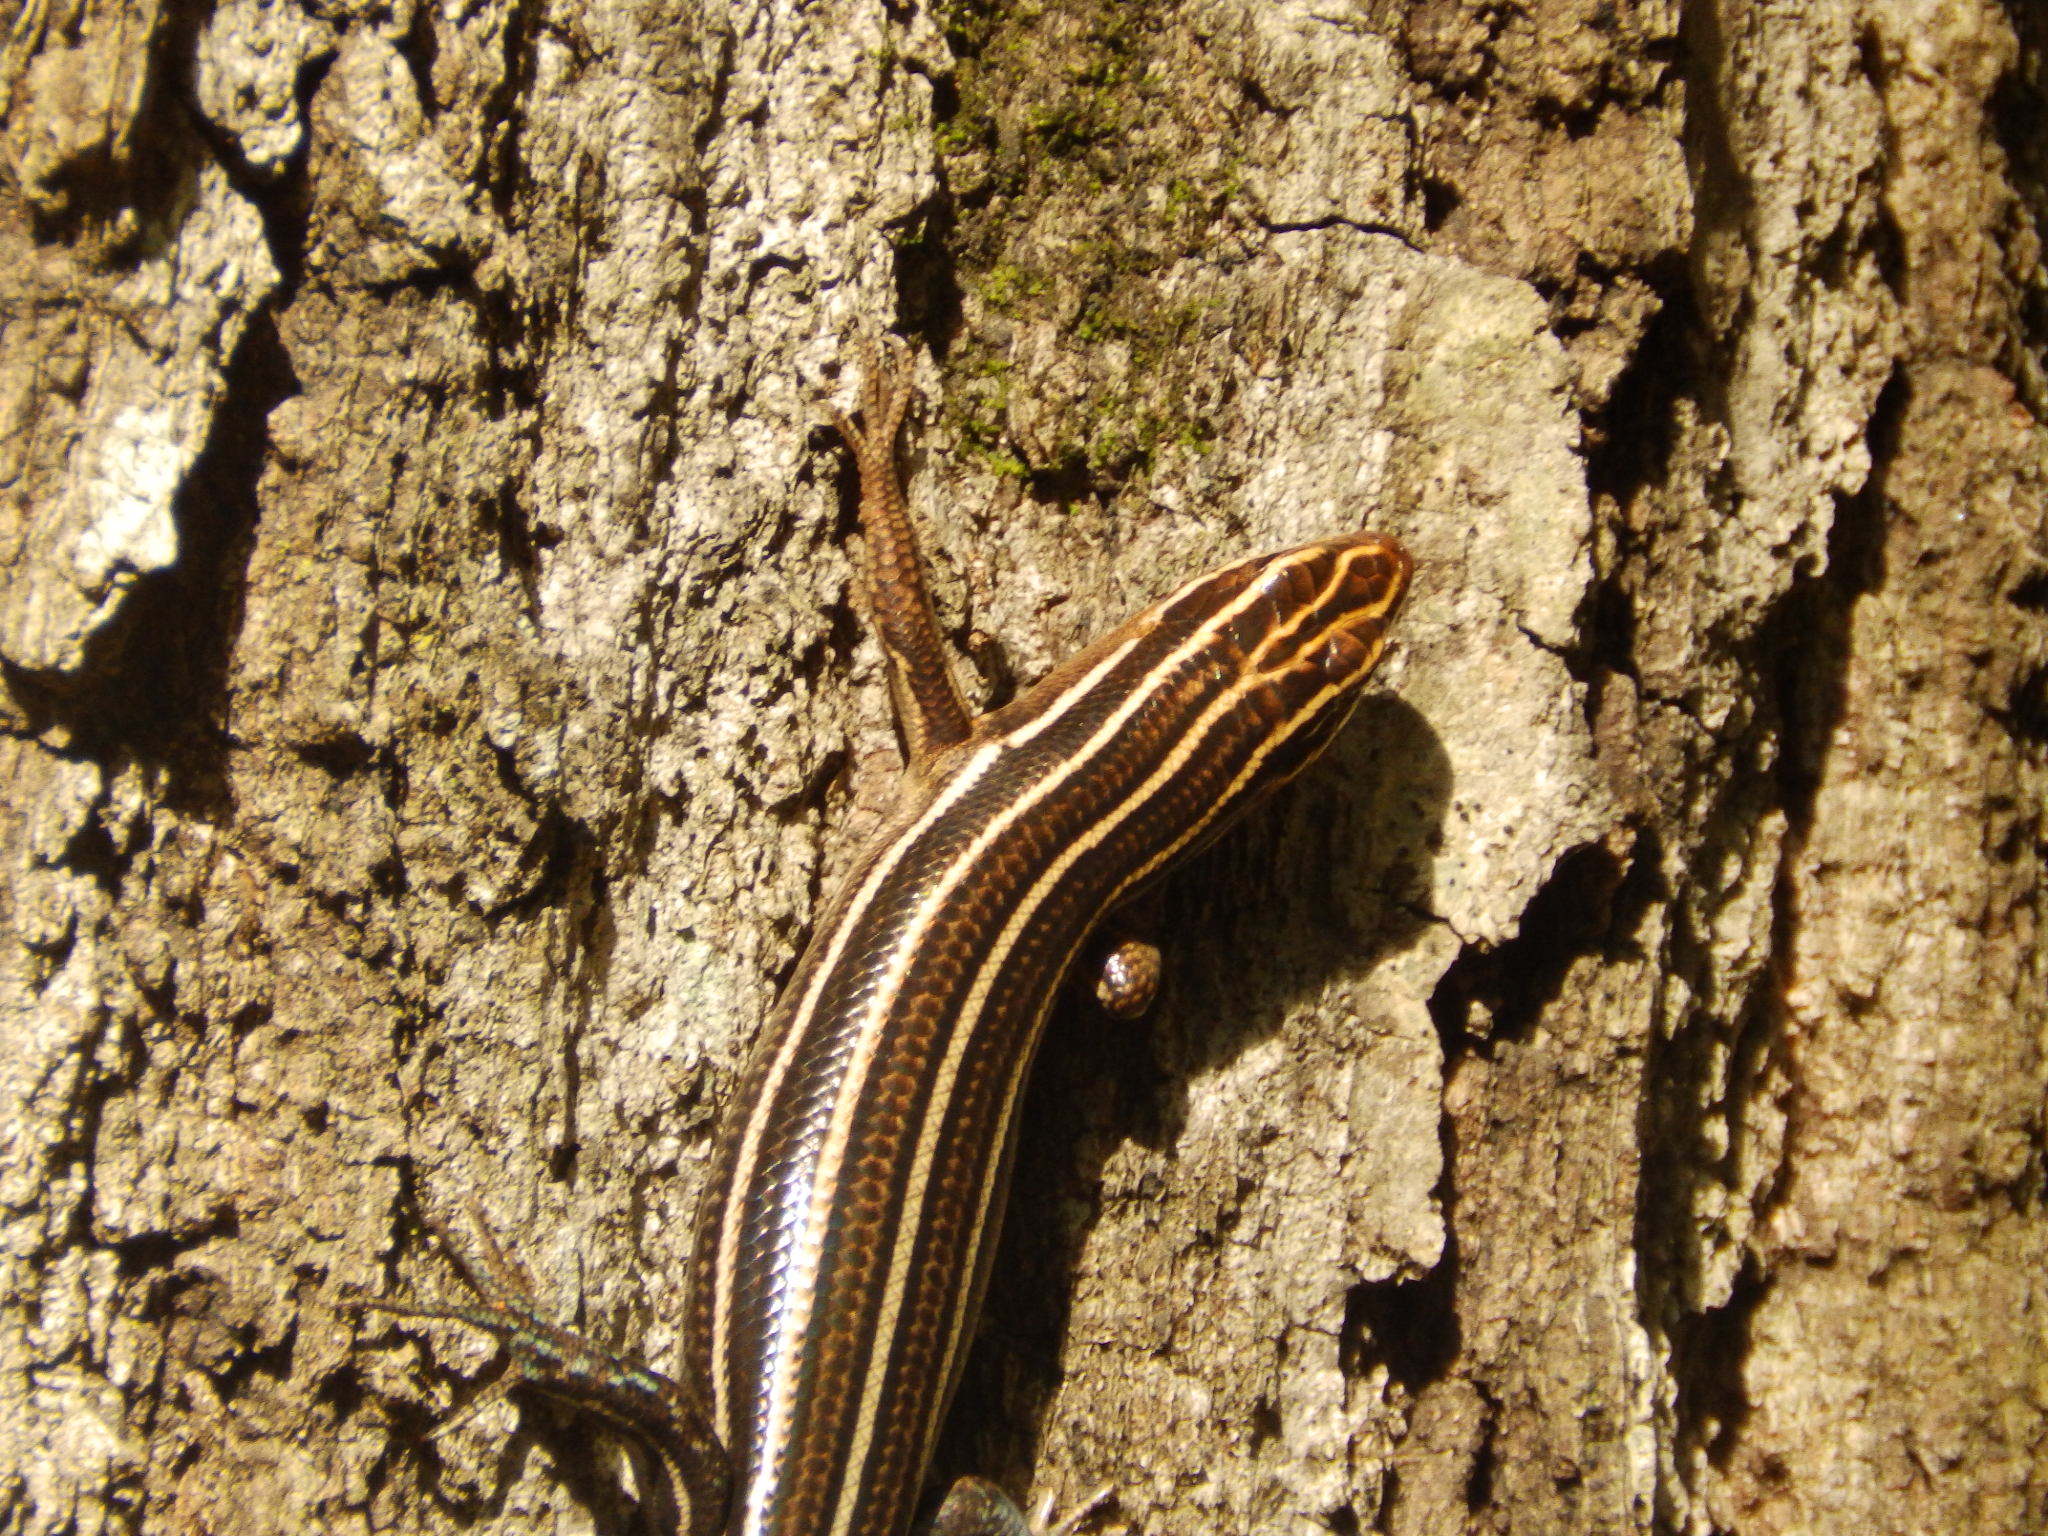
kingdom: Animalia
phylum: Chordata
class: Squamata
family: Scincidae
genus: Plestiodon
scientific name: Plestiodon laticeps
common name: Broadhead skink
